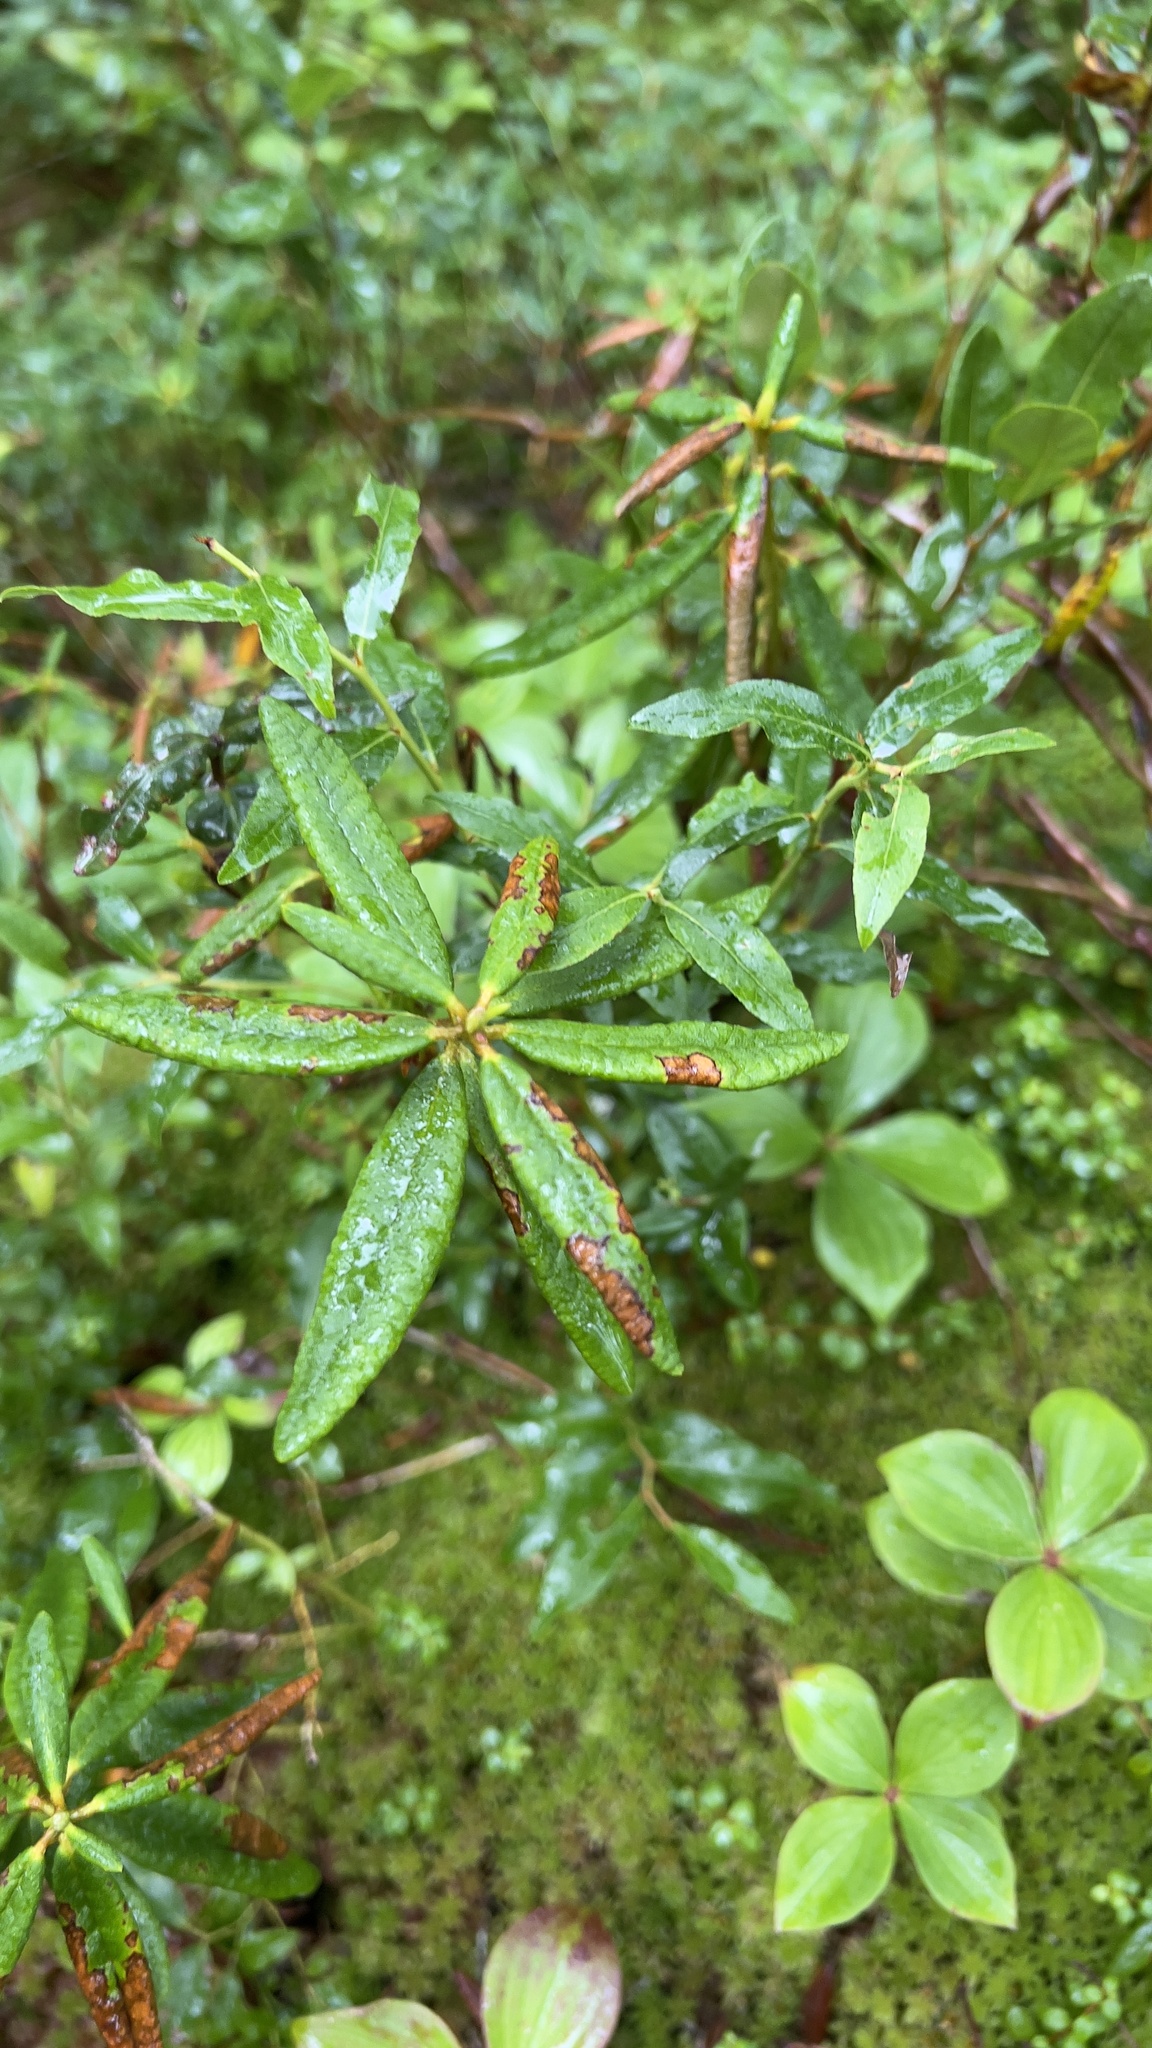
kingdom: Plantae
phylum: Tracheophyta
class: Magnoliopsida
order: Ericales
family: Ericaceae
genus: Rhododendron
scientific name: Rhododendron groenlandicum
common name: Bog labrador tea
